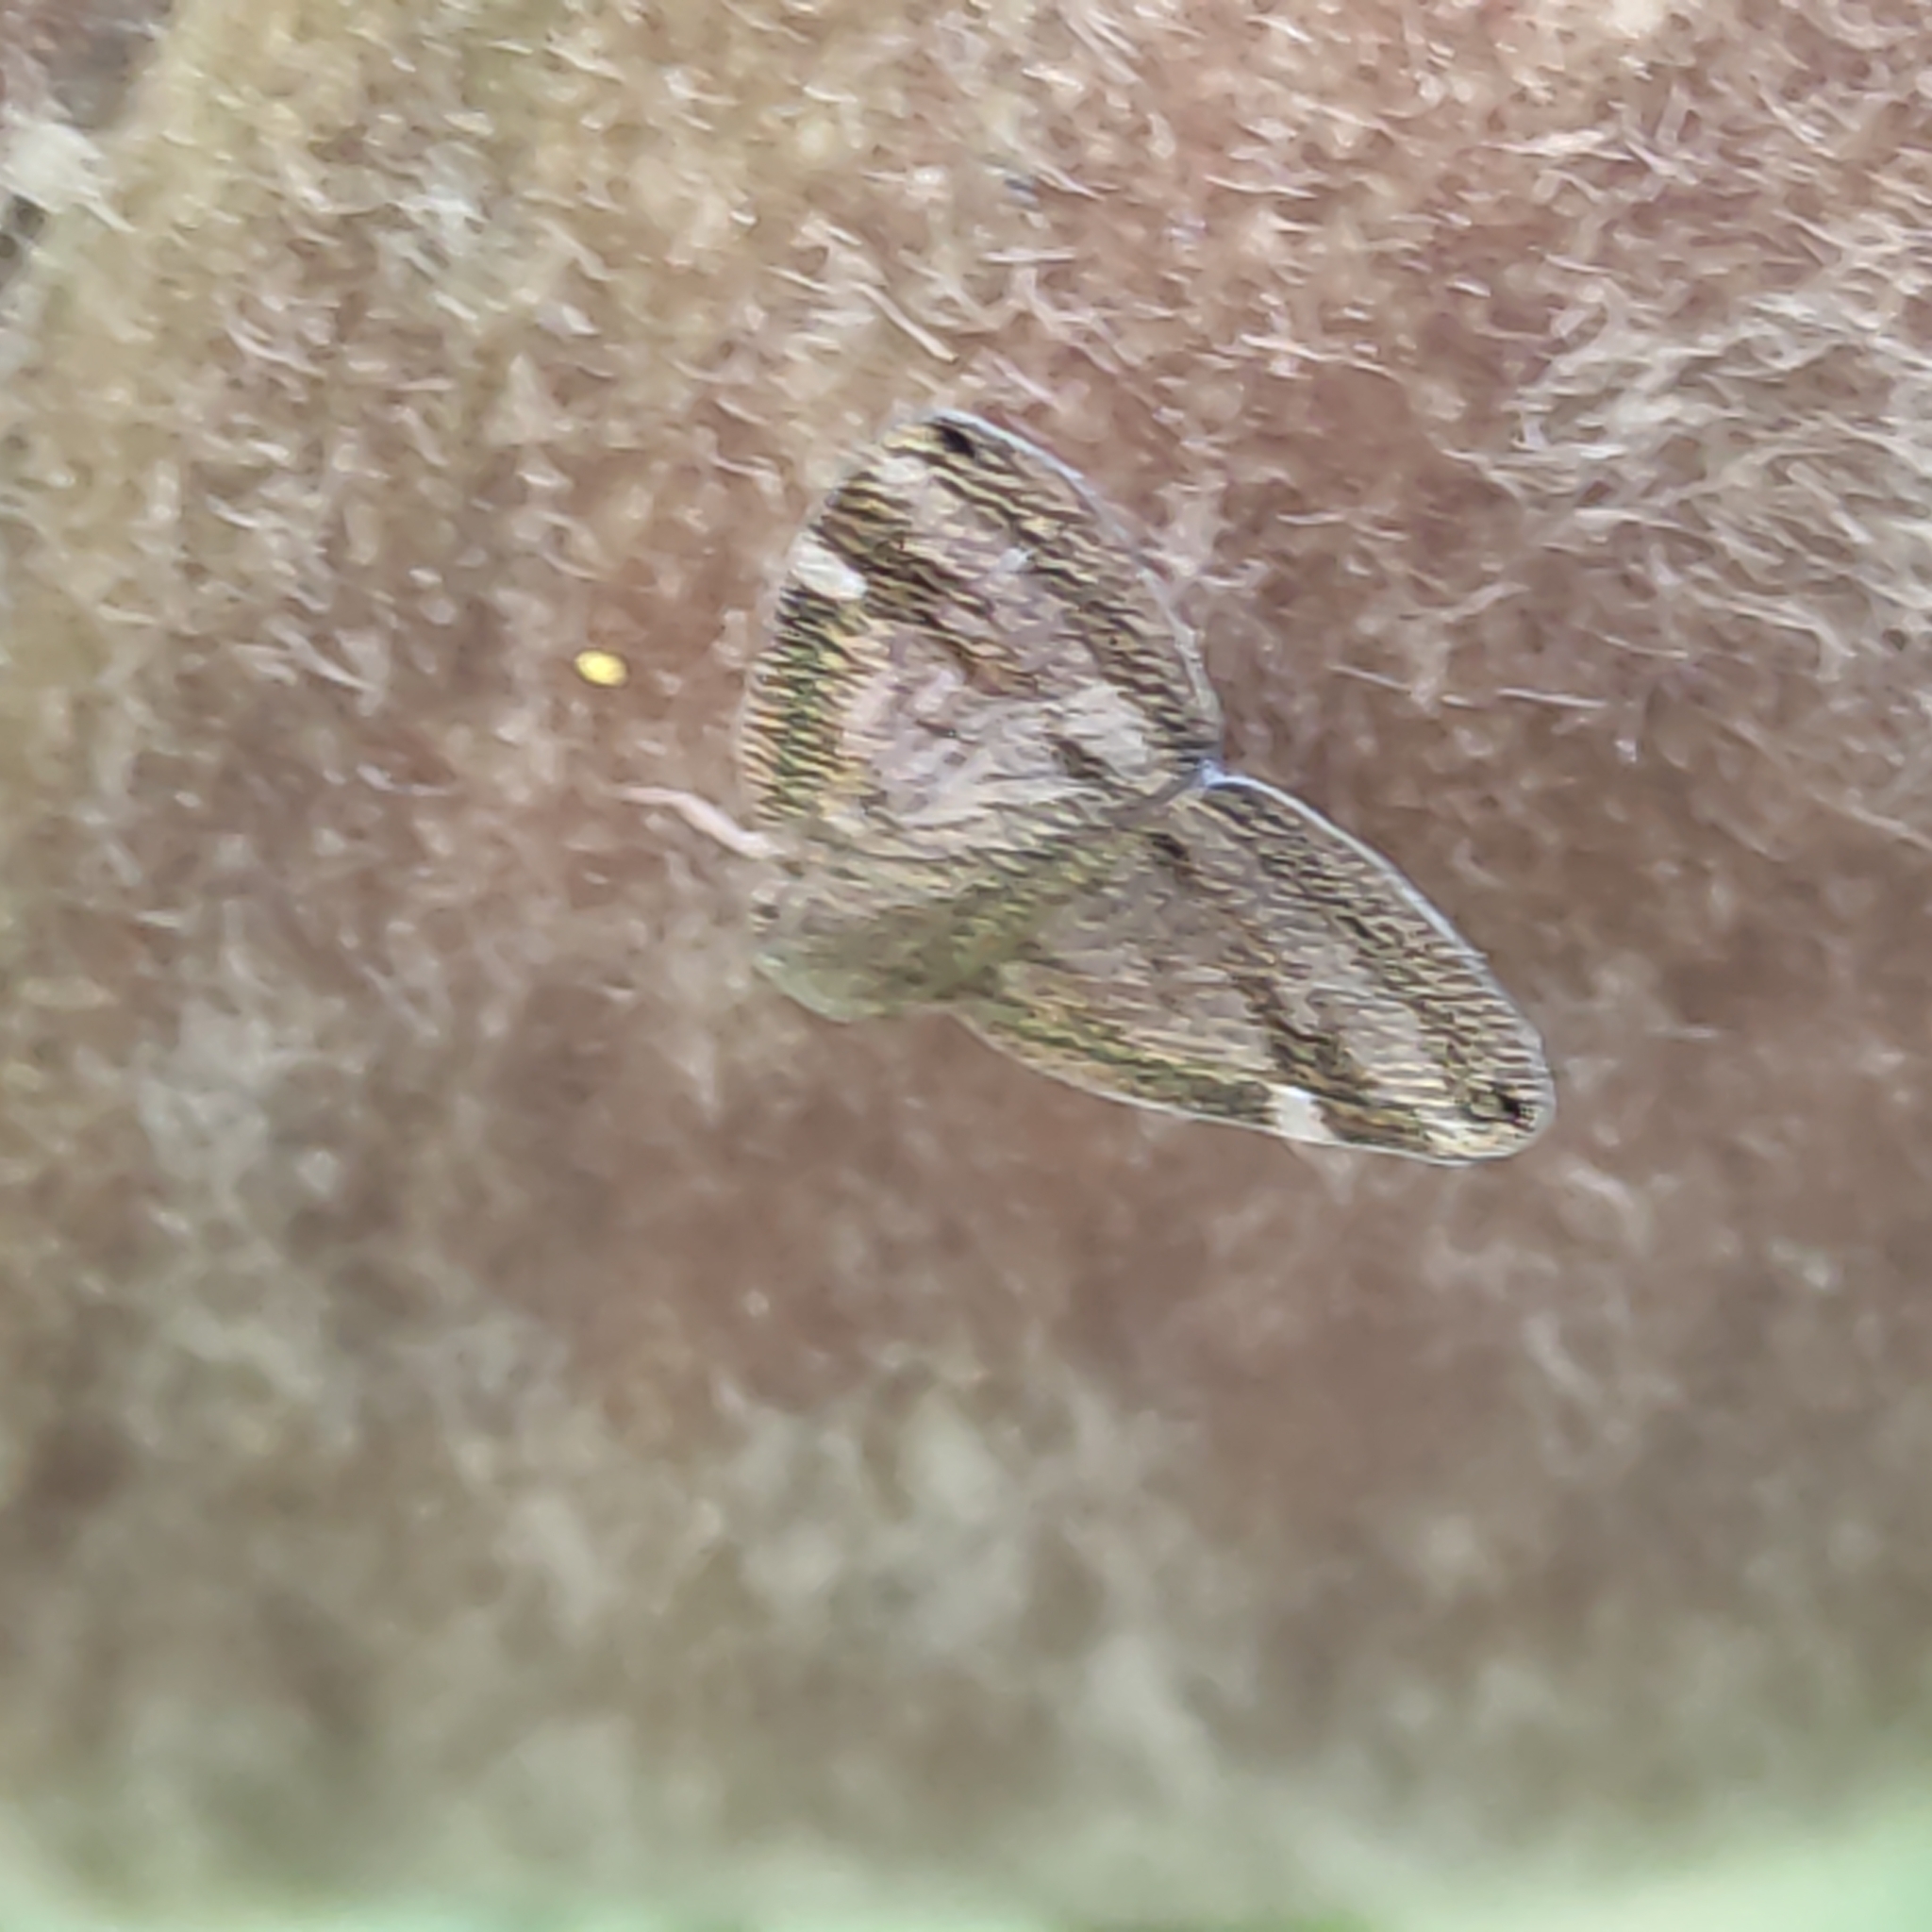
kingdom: Animalia
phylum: Arthropoda
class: Insecta
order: Hemiptera
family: Ricaniidae
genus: Scolypopa
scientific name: Scolypopa australis
